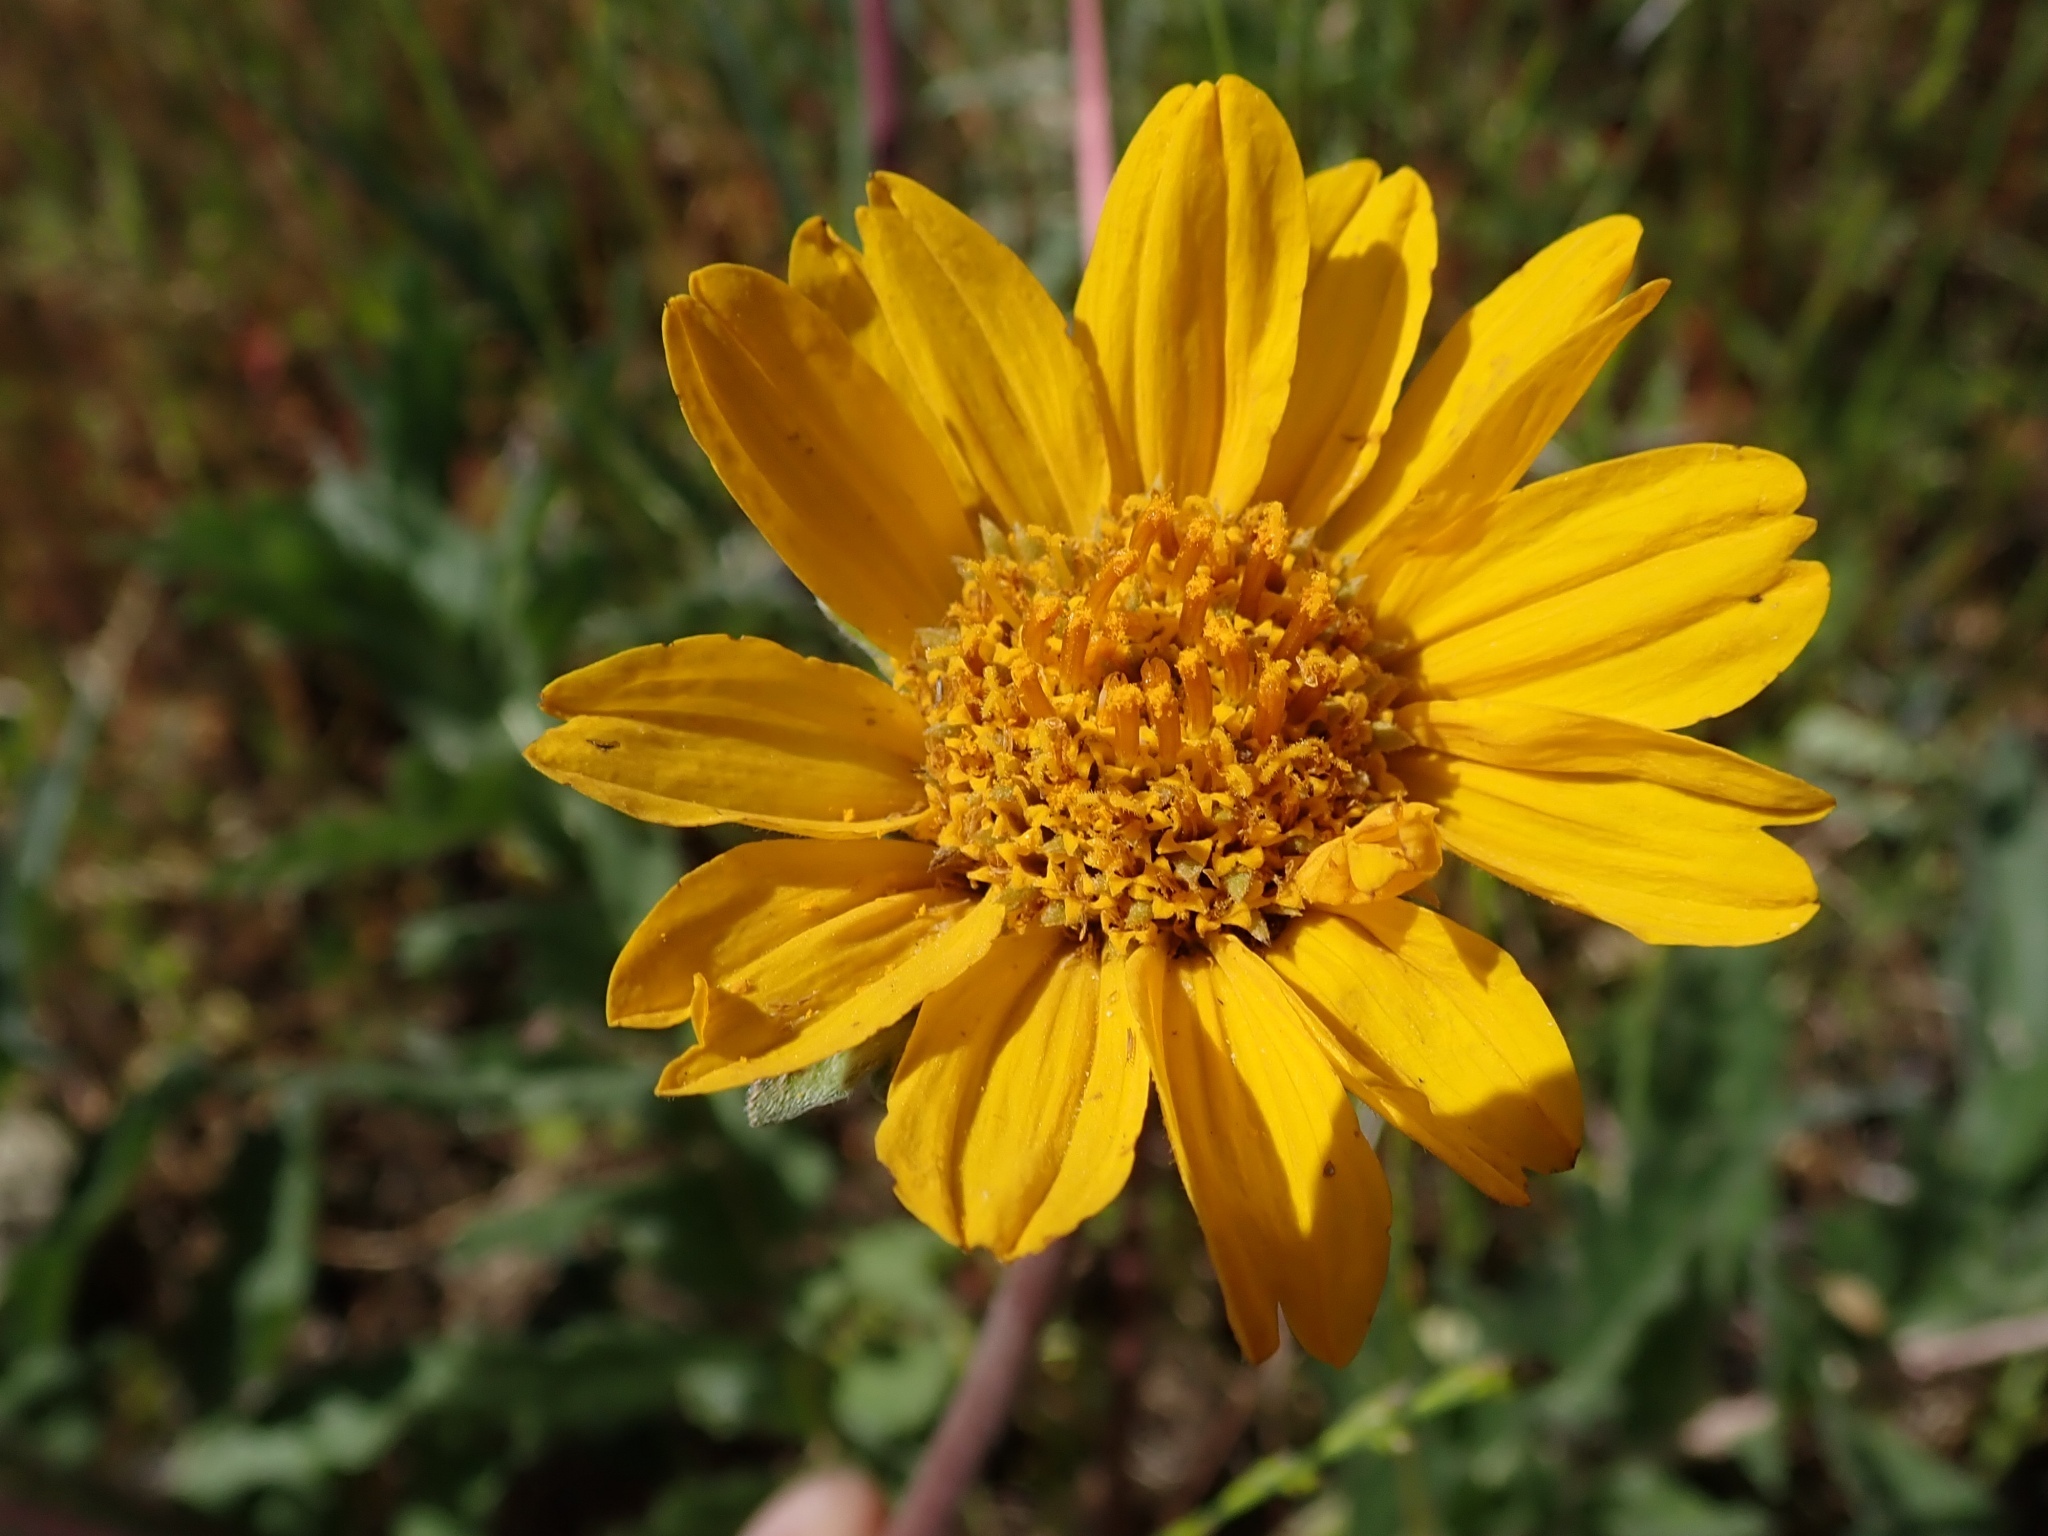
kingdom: Plantae
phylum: Tracheophyta
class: Magnoliopsida
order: Asterales
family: Asteraceae
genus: Balsamorhiza
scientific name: Balsamorhiza macrolepis
